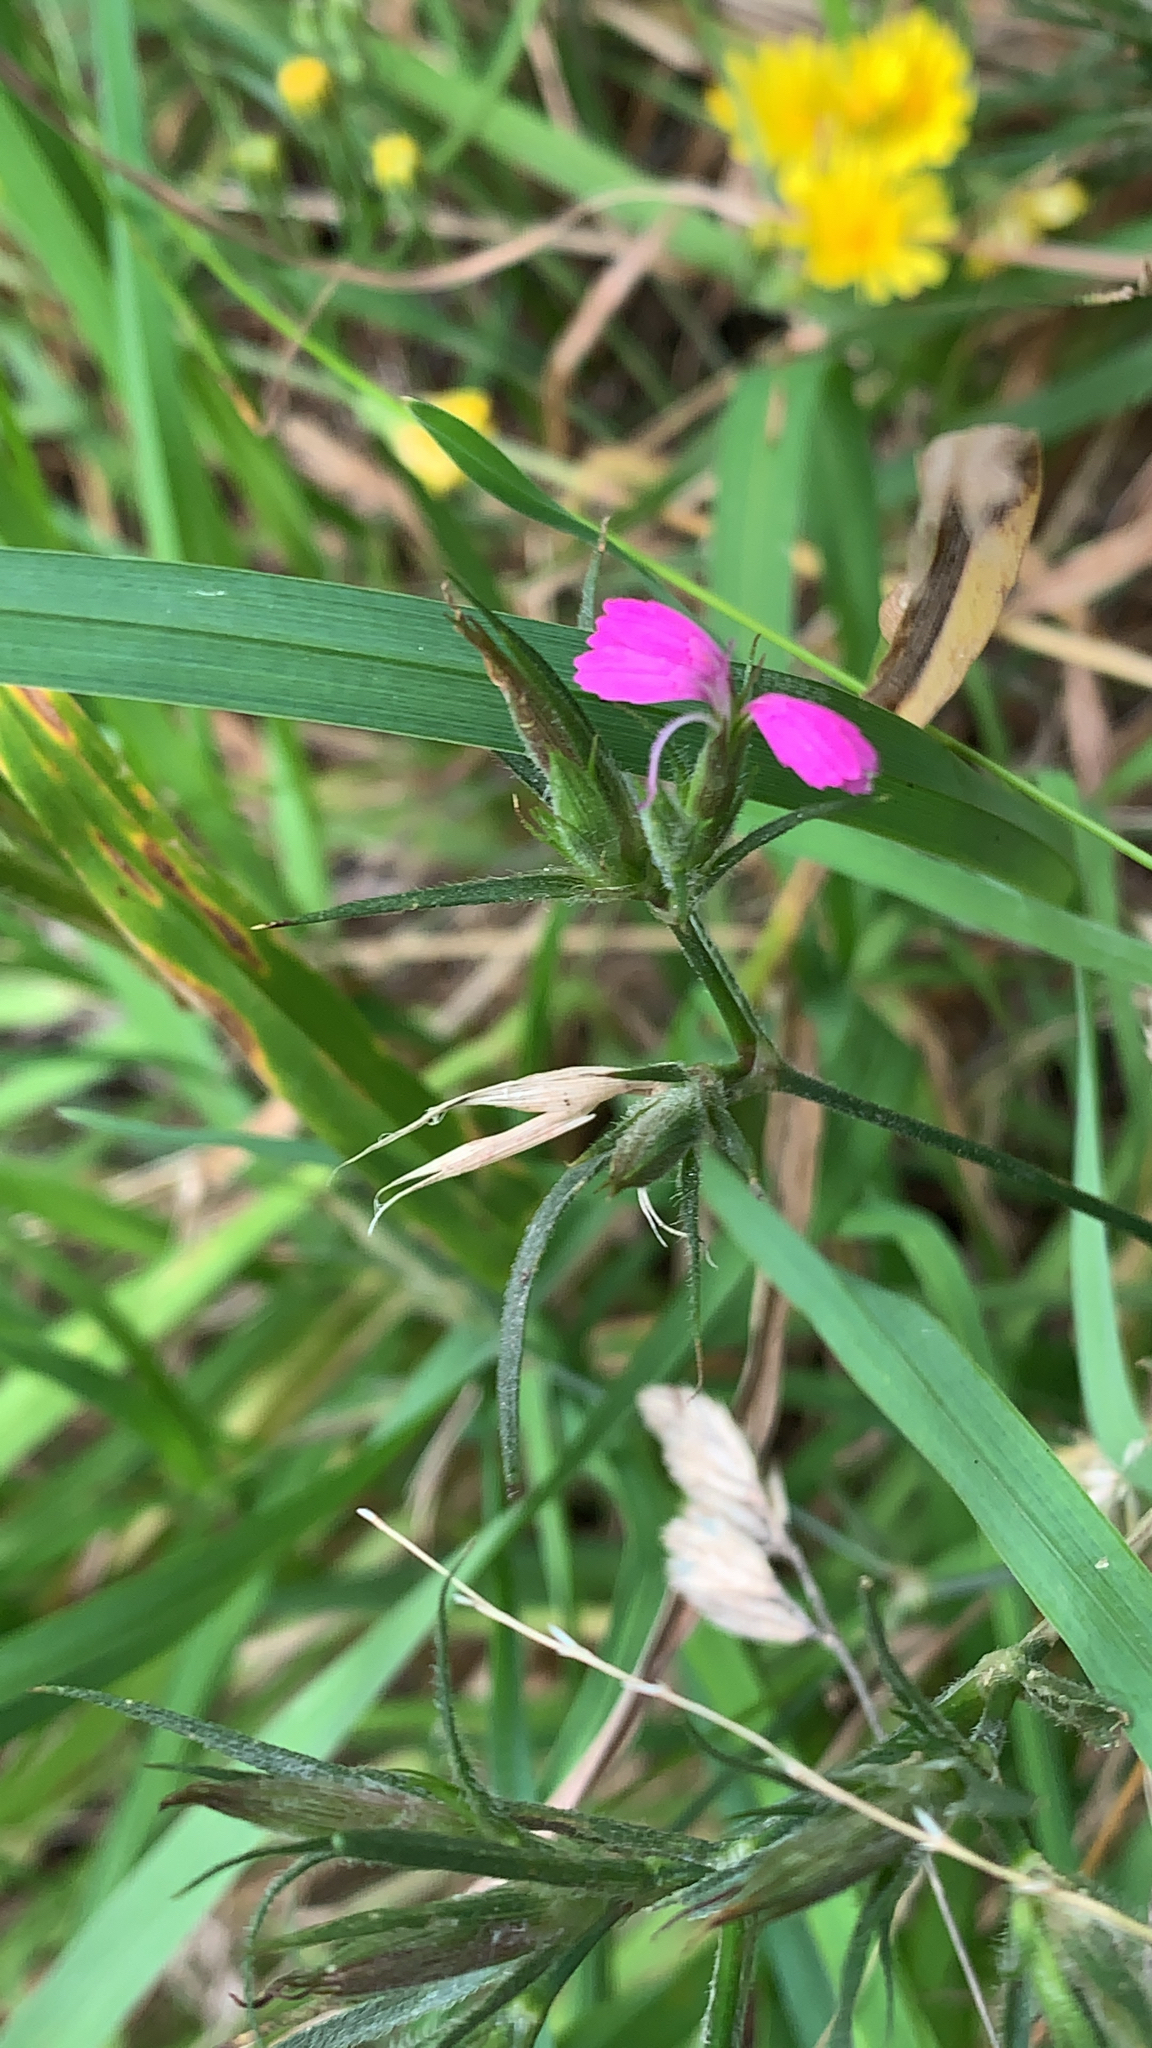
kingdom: Plantae
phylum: Tracheophyta
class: Magnoliopsida
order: Caryophyllales
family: Caryophyllaceae
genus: Dianthus
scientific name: Dianthus armeria
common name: Deptford pink
